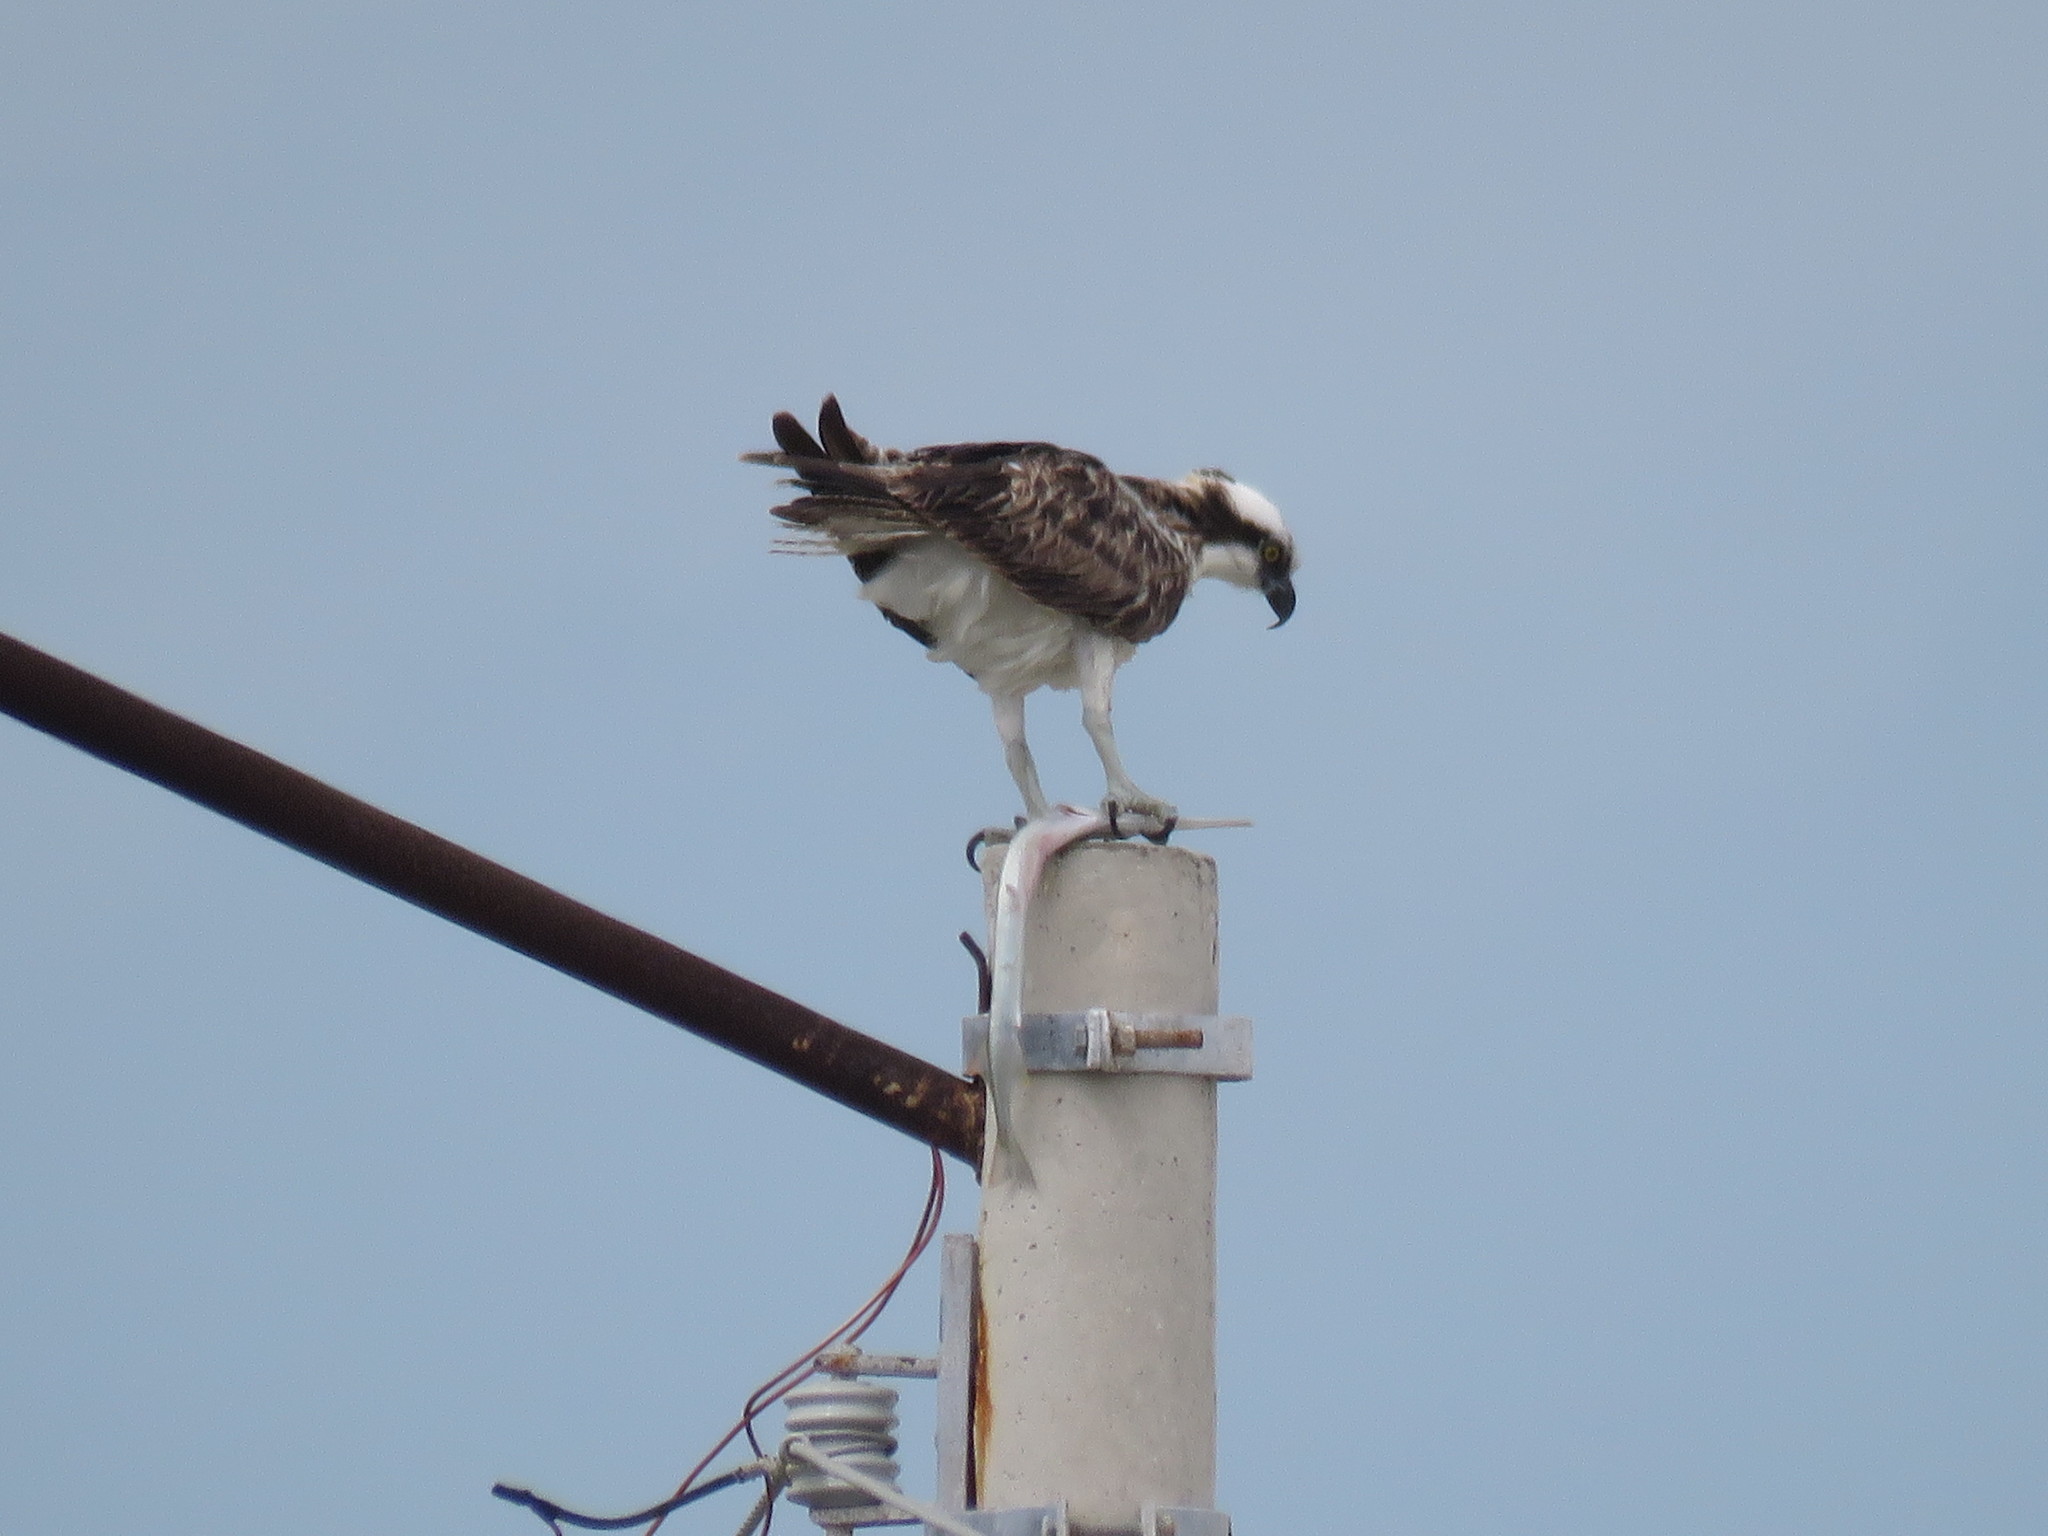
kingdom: Animalia
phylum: Chordata
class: Aves
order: Accipitriformes
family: Pandionidae
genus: Pandion
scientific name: Pandion haliaetus
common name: Osprey
